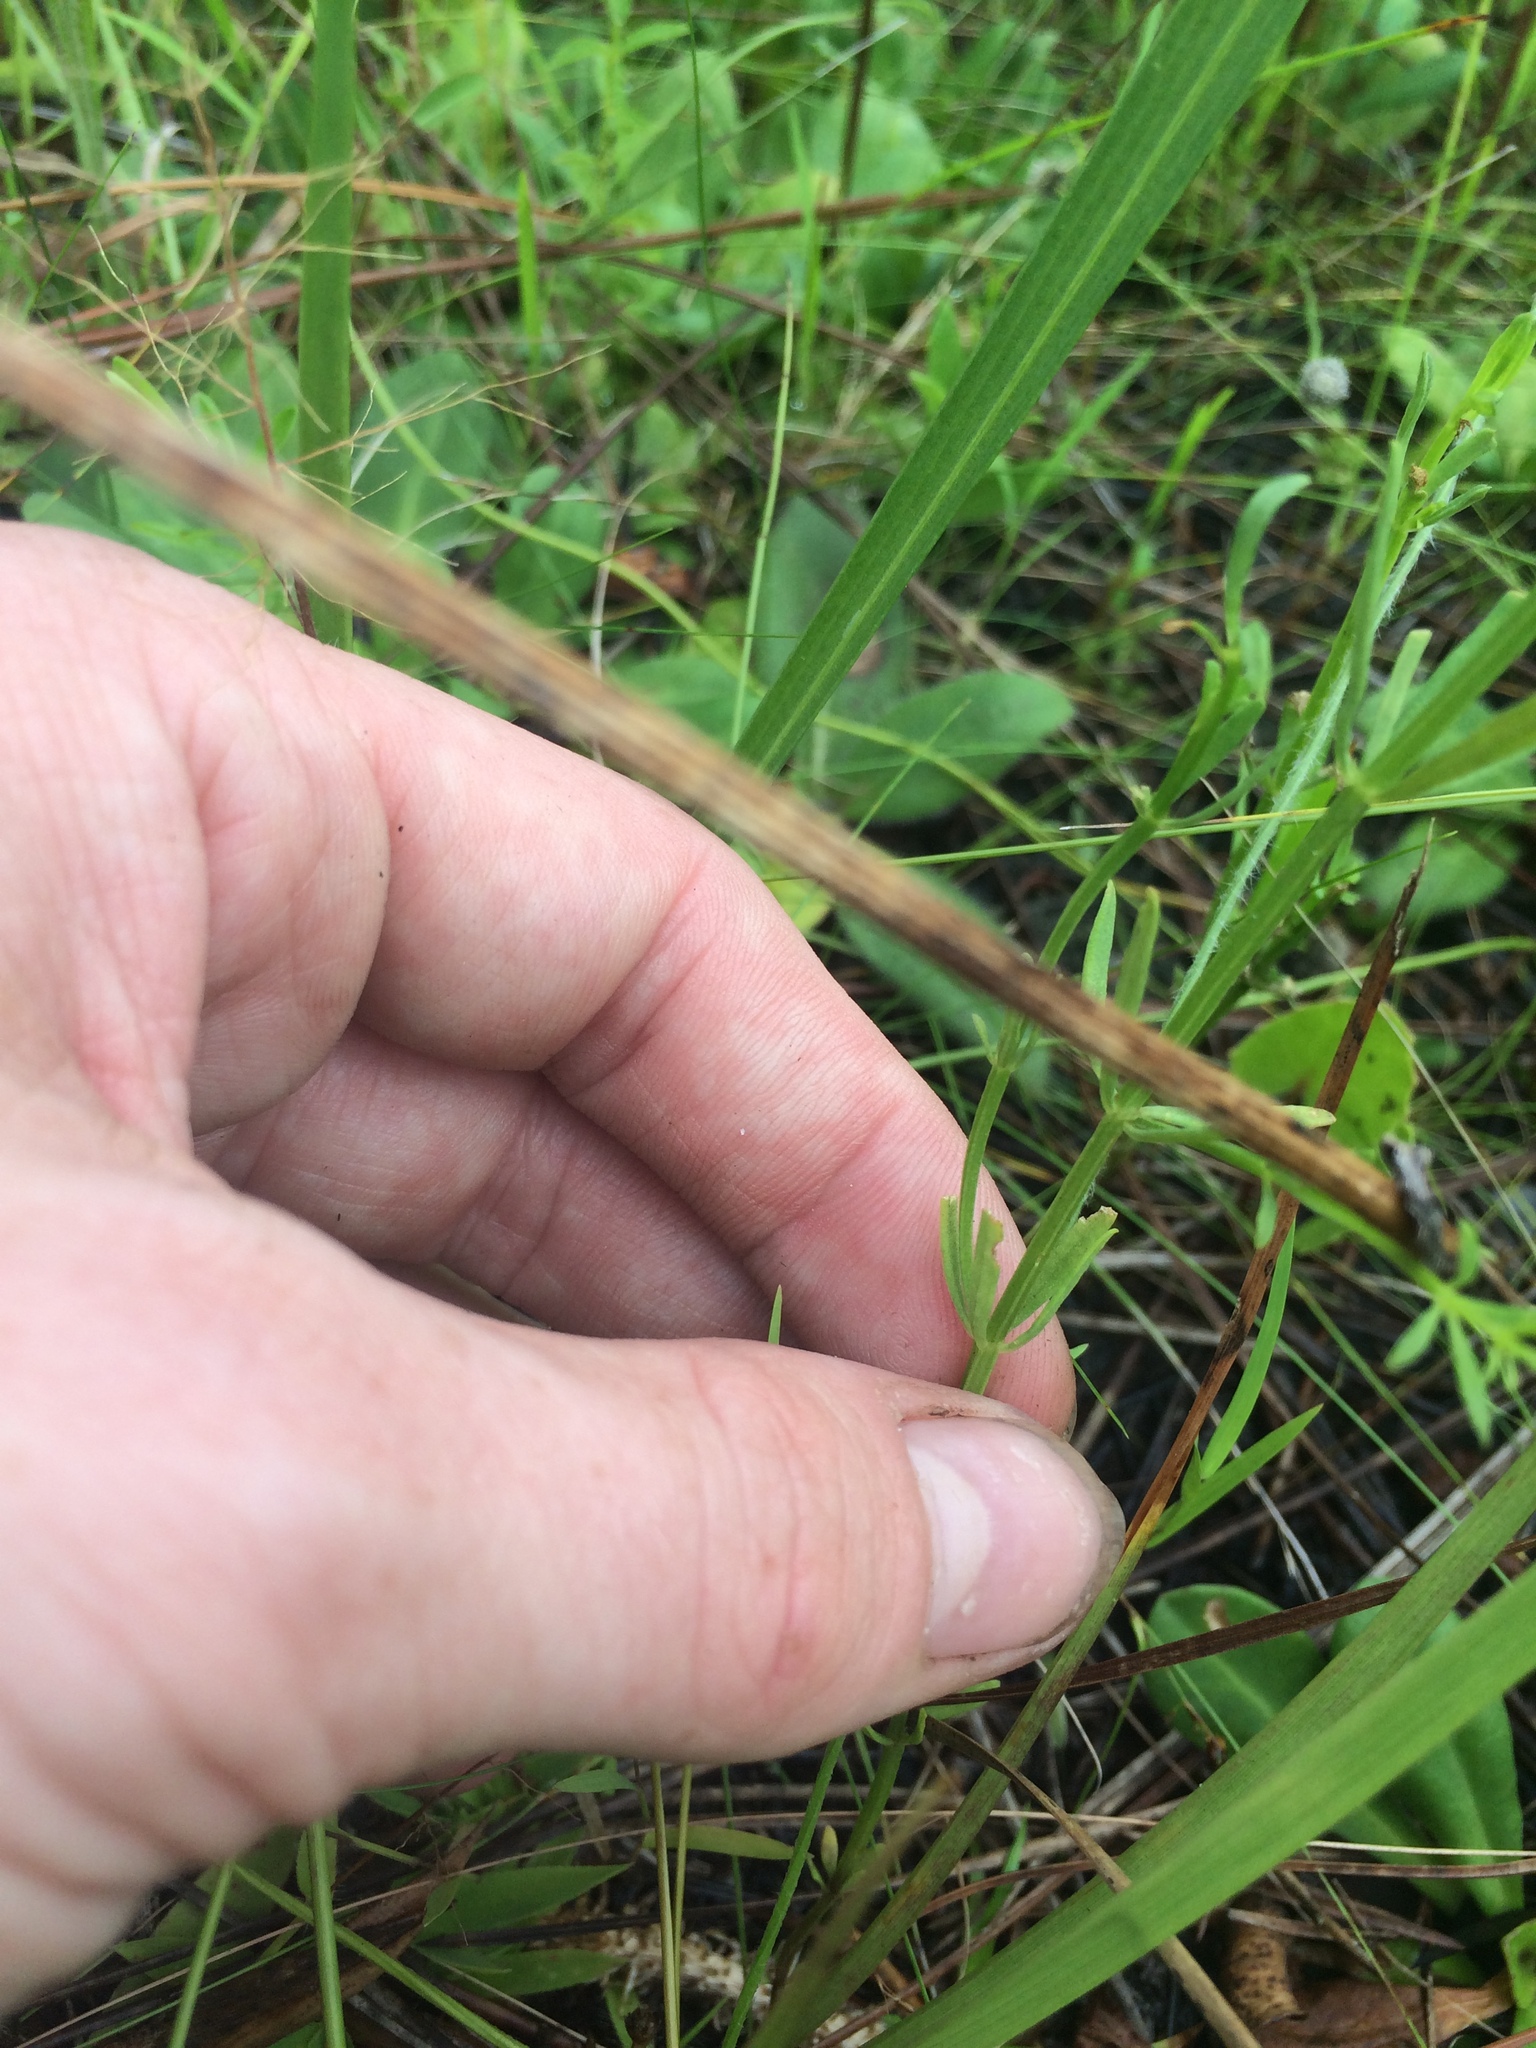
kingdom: Plantae
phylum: Tracheophyta
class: Magnoliopsida
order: Fabales
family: Polygalaceae
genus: Polygala
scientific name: Polygala cruciata
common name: Drumheads
